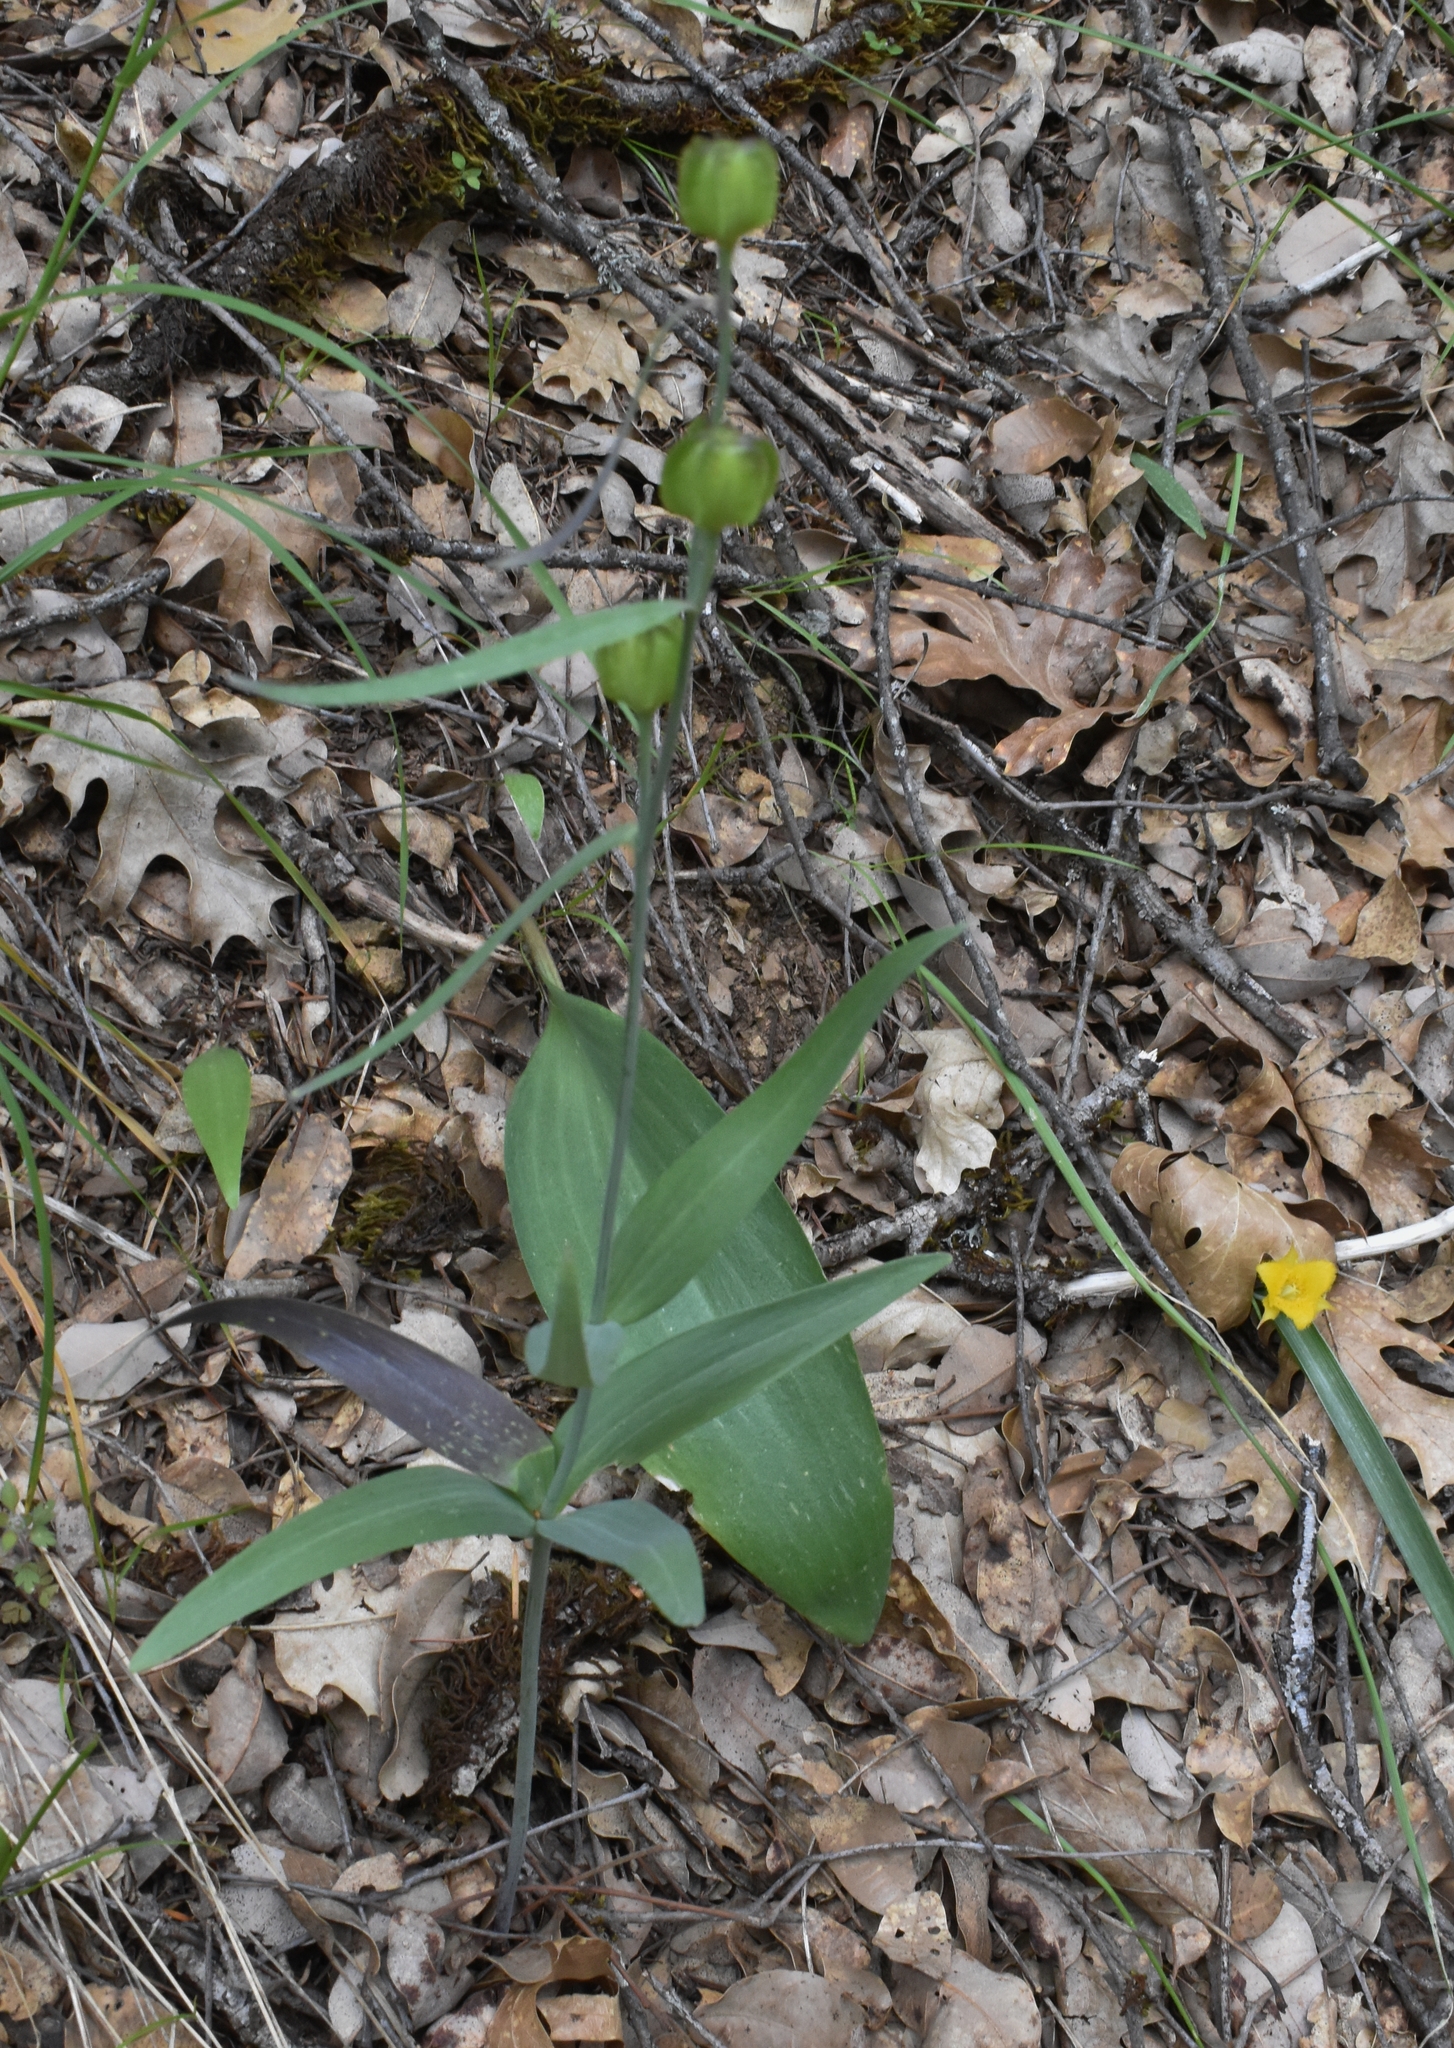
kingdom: Plantae
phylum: Tracheophyta
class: Liliopsida
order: Liliales
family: Liliaceae
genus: Fritillaria
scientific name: Fritillaria micrantha
